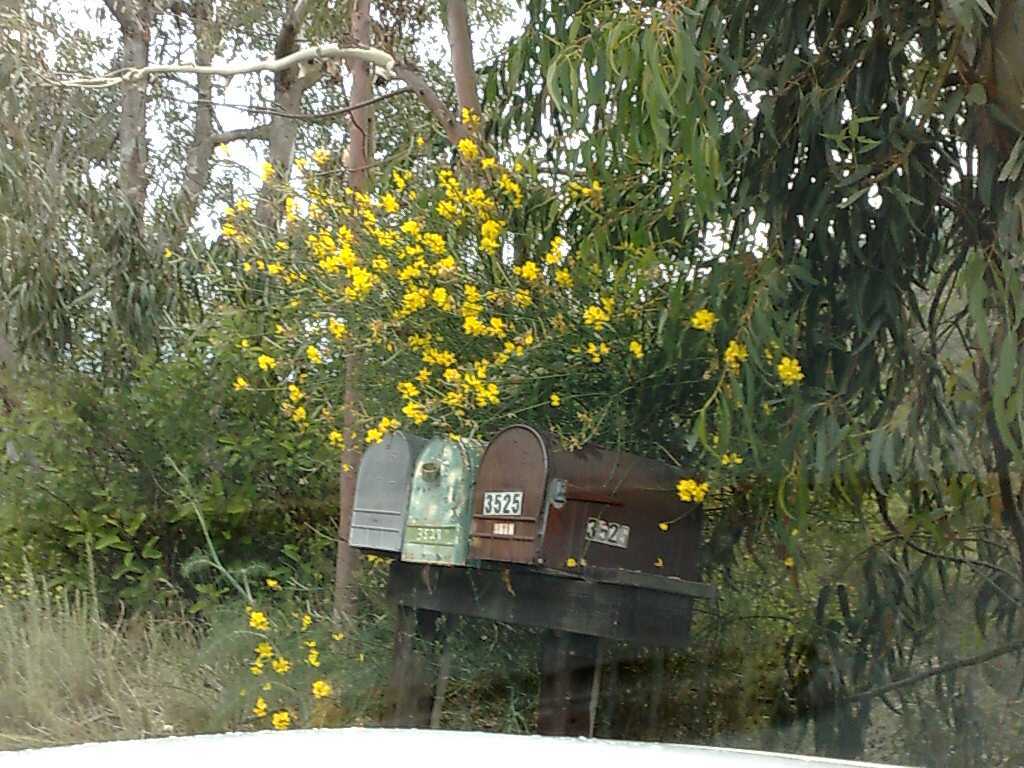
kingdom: Plantae
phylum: Tracheophyta
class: Magnoliopsida
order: Fabales
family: Fabaceae
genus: Spartium
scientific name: Spartium junceum
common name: Spanish broom
